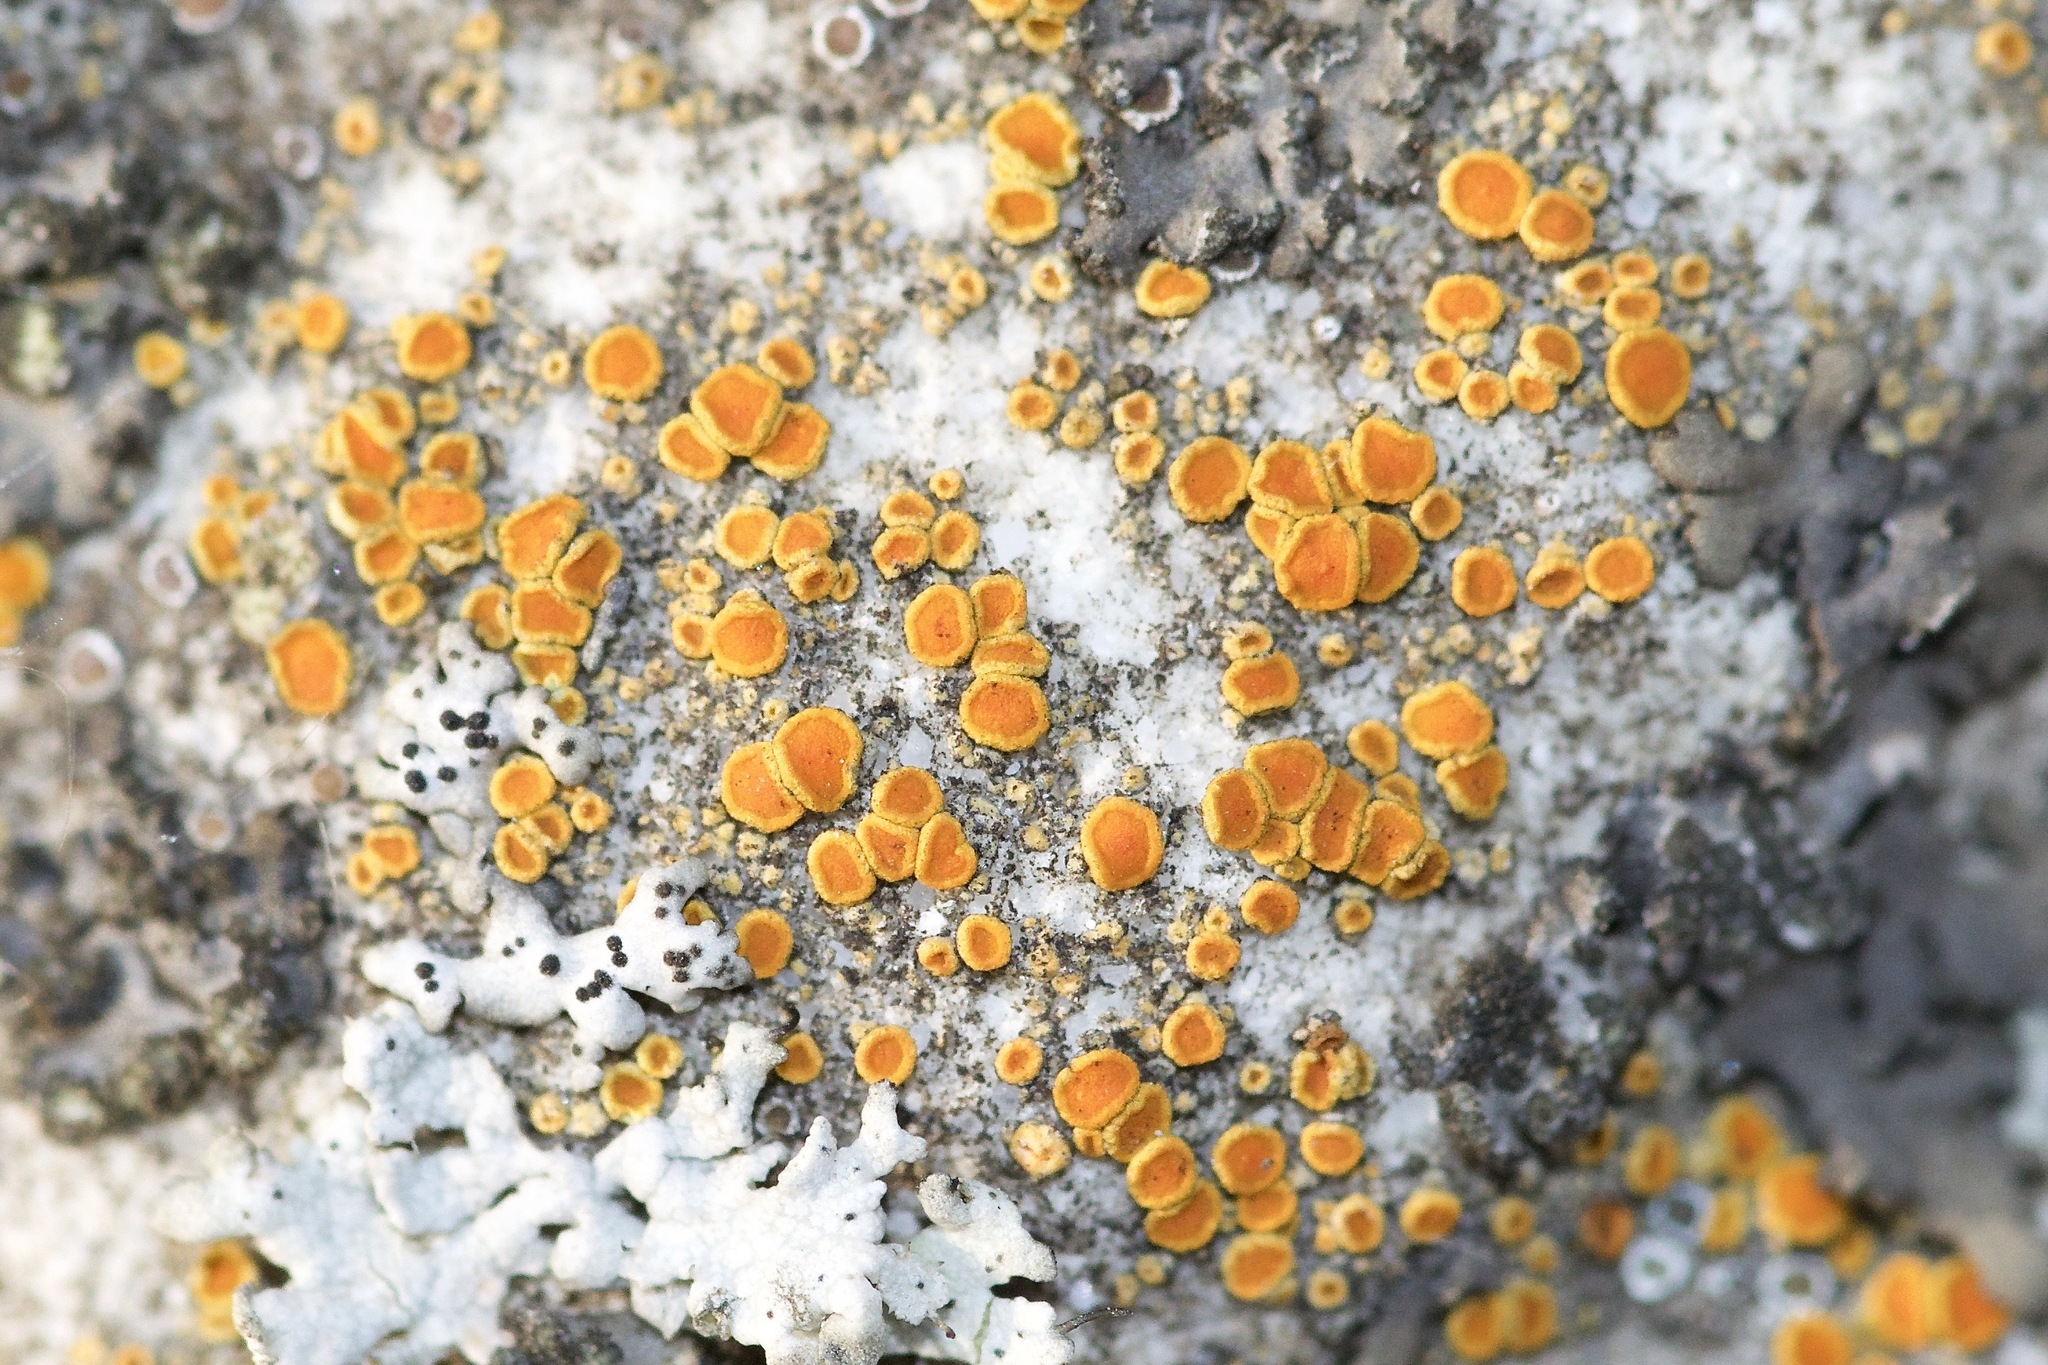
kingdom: Fungi
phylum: Ascomycota
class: Lecanoromycetes
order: Teloschistales
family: Teloschistaceae
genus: Athallia
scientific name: Athallia holocarpa
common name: Firedot lichen
